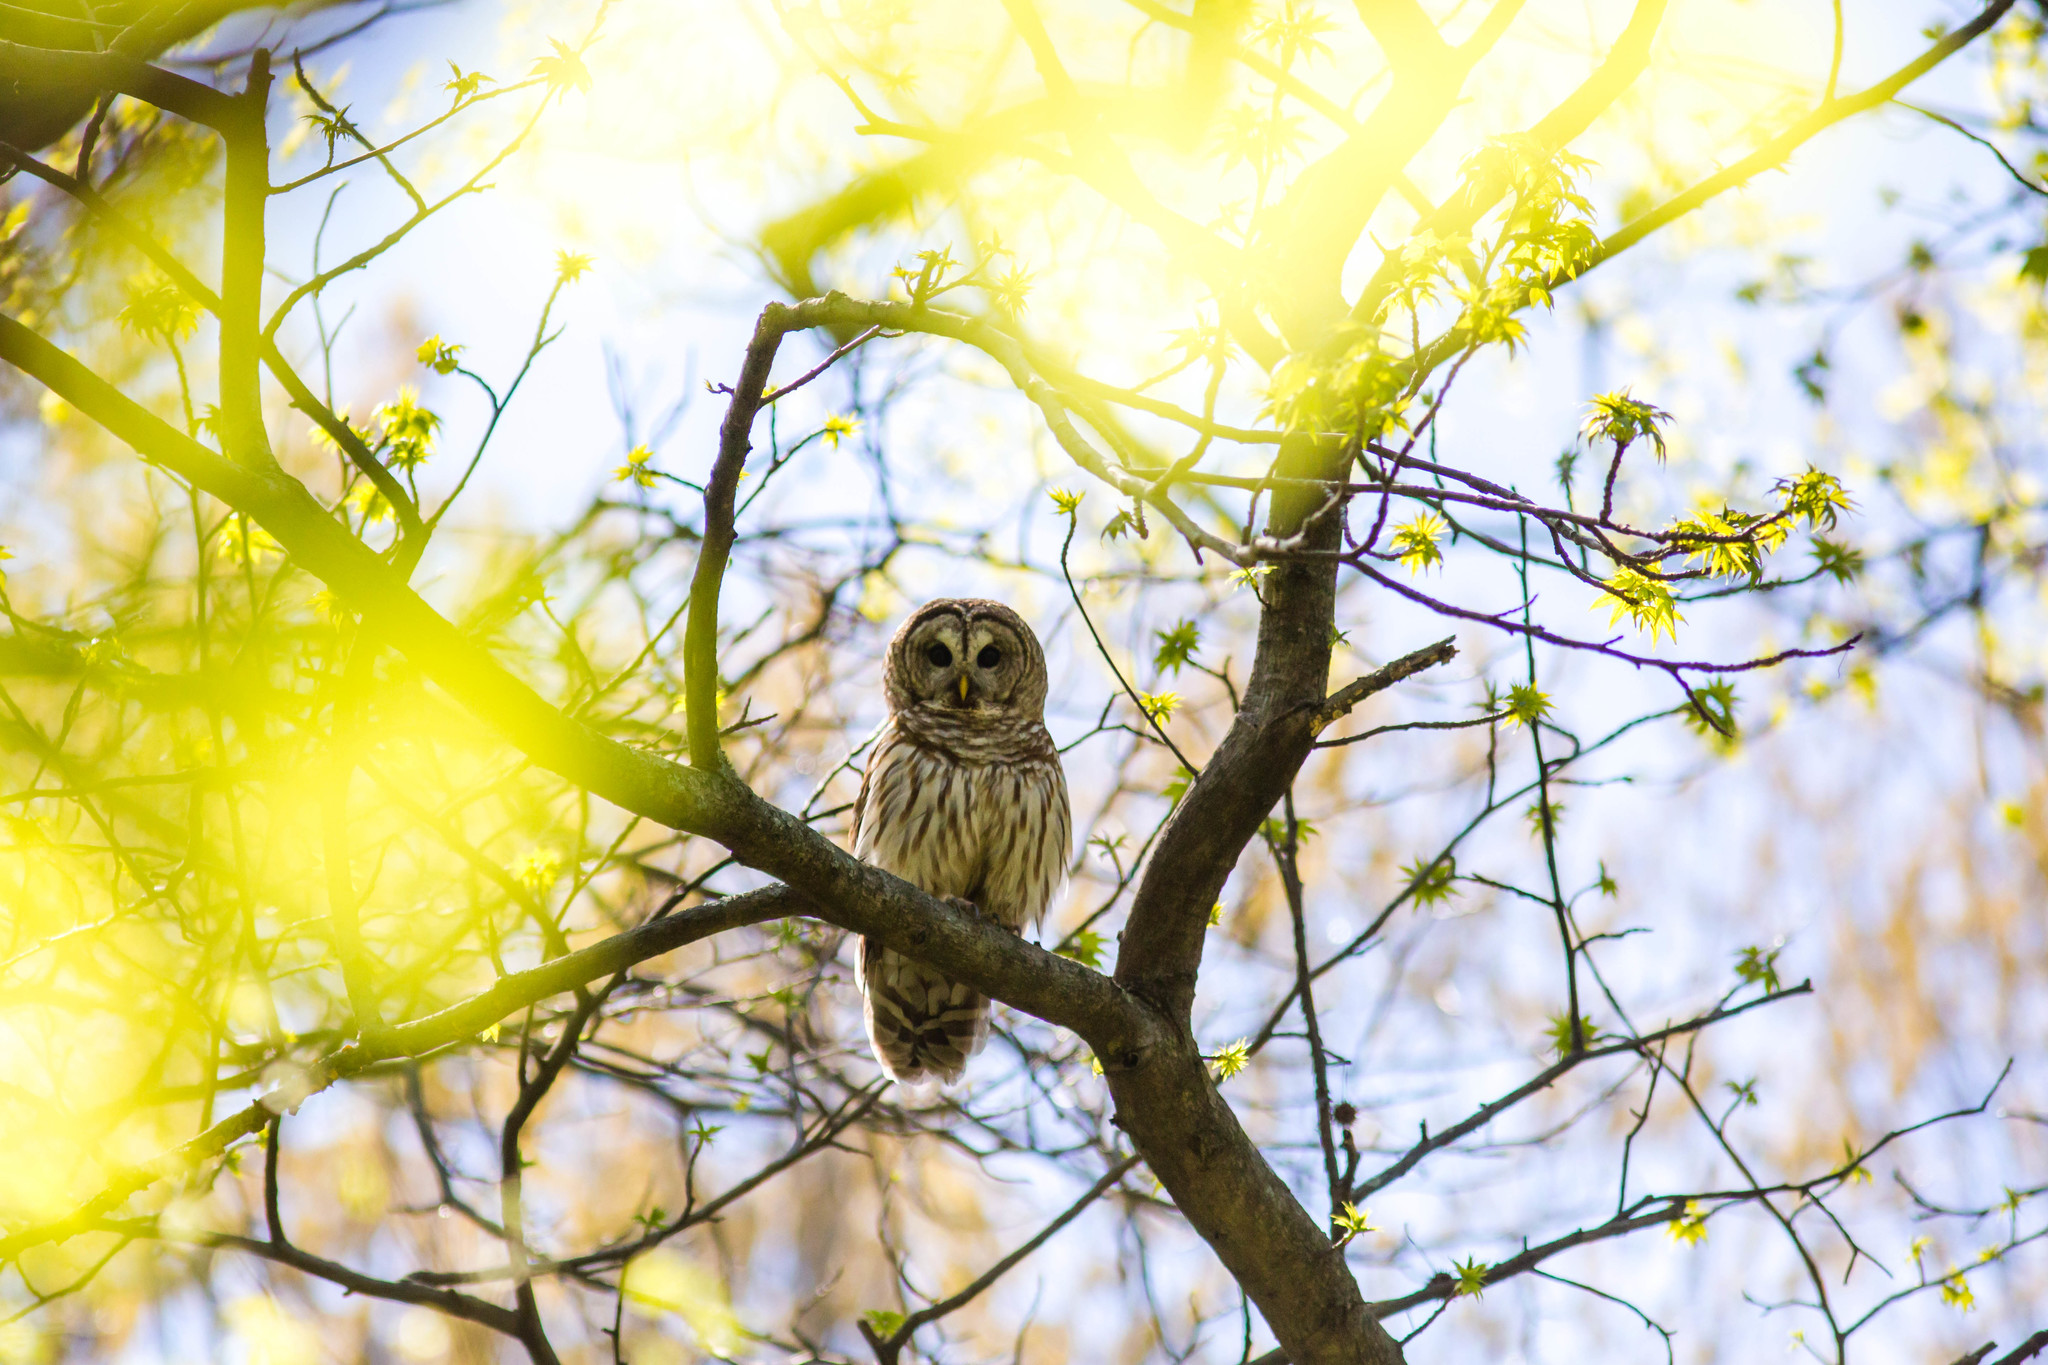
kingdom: Animalia
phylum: Chordata
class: Aves
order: Strigiformes
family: Strigidae
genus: Strix
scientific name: Strix varia
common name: Barred owl
